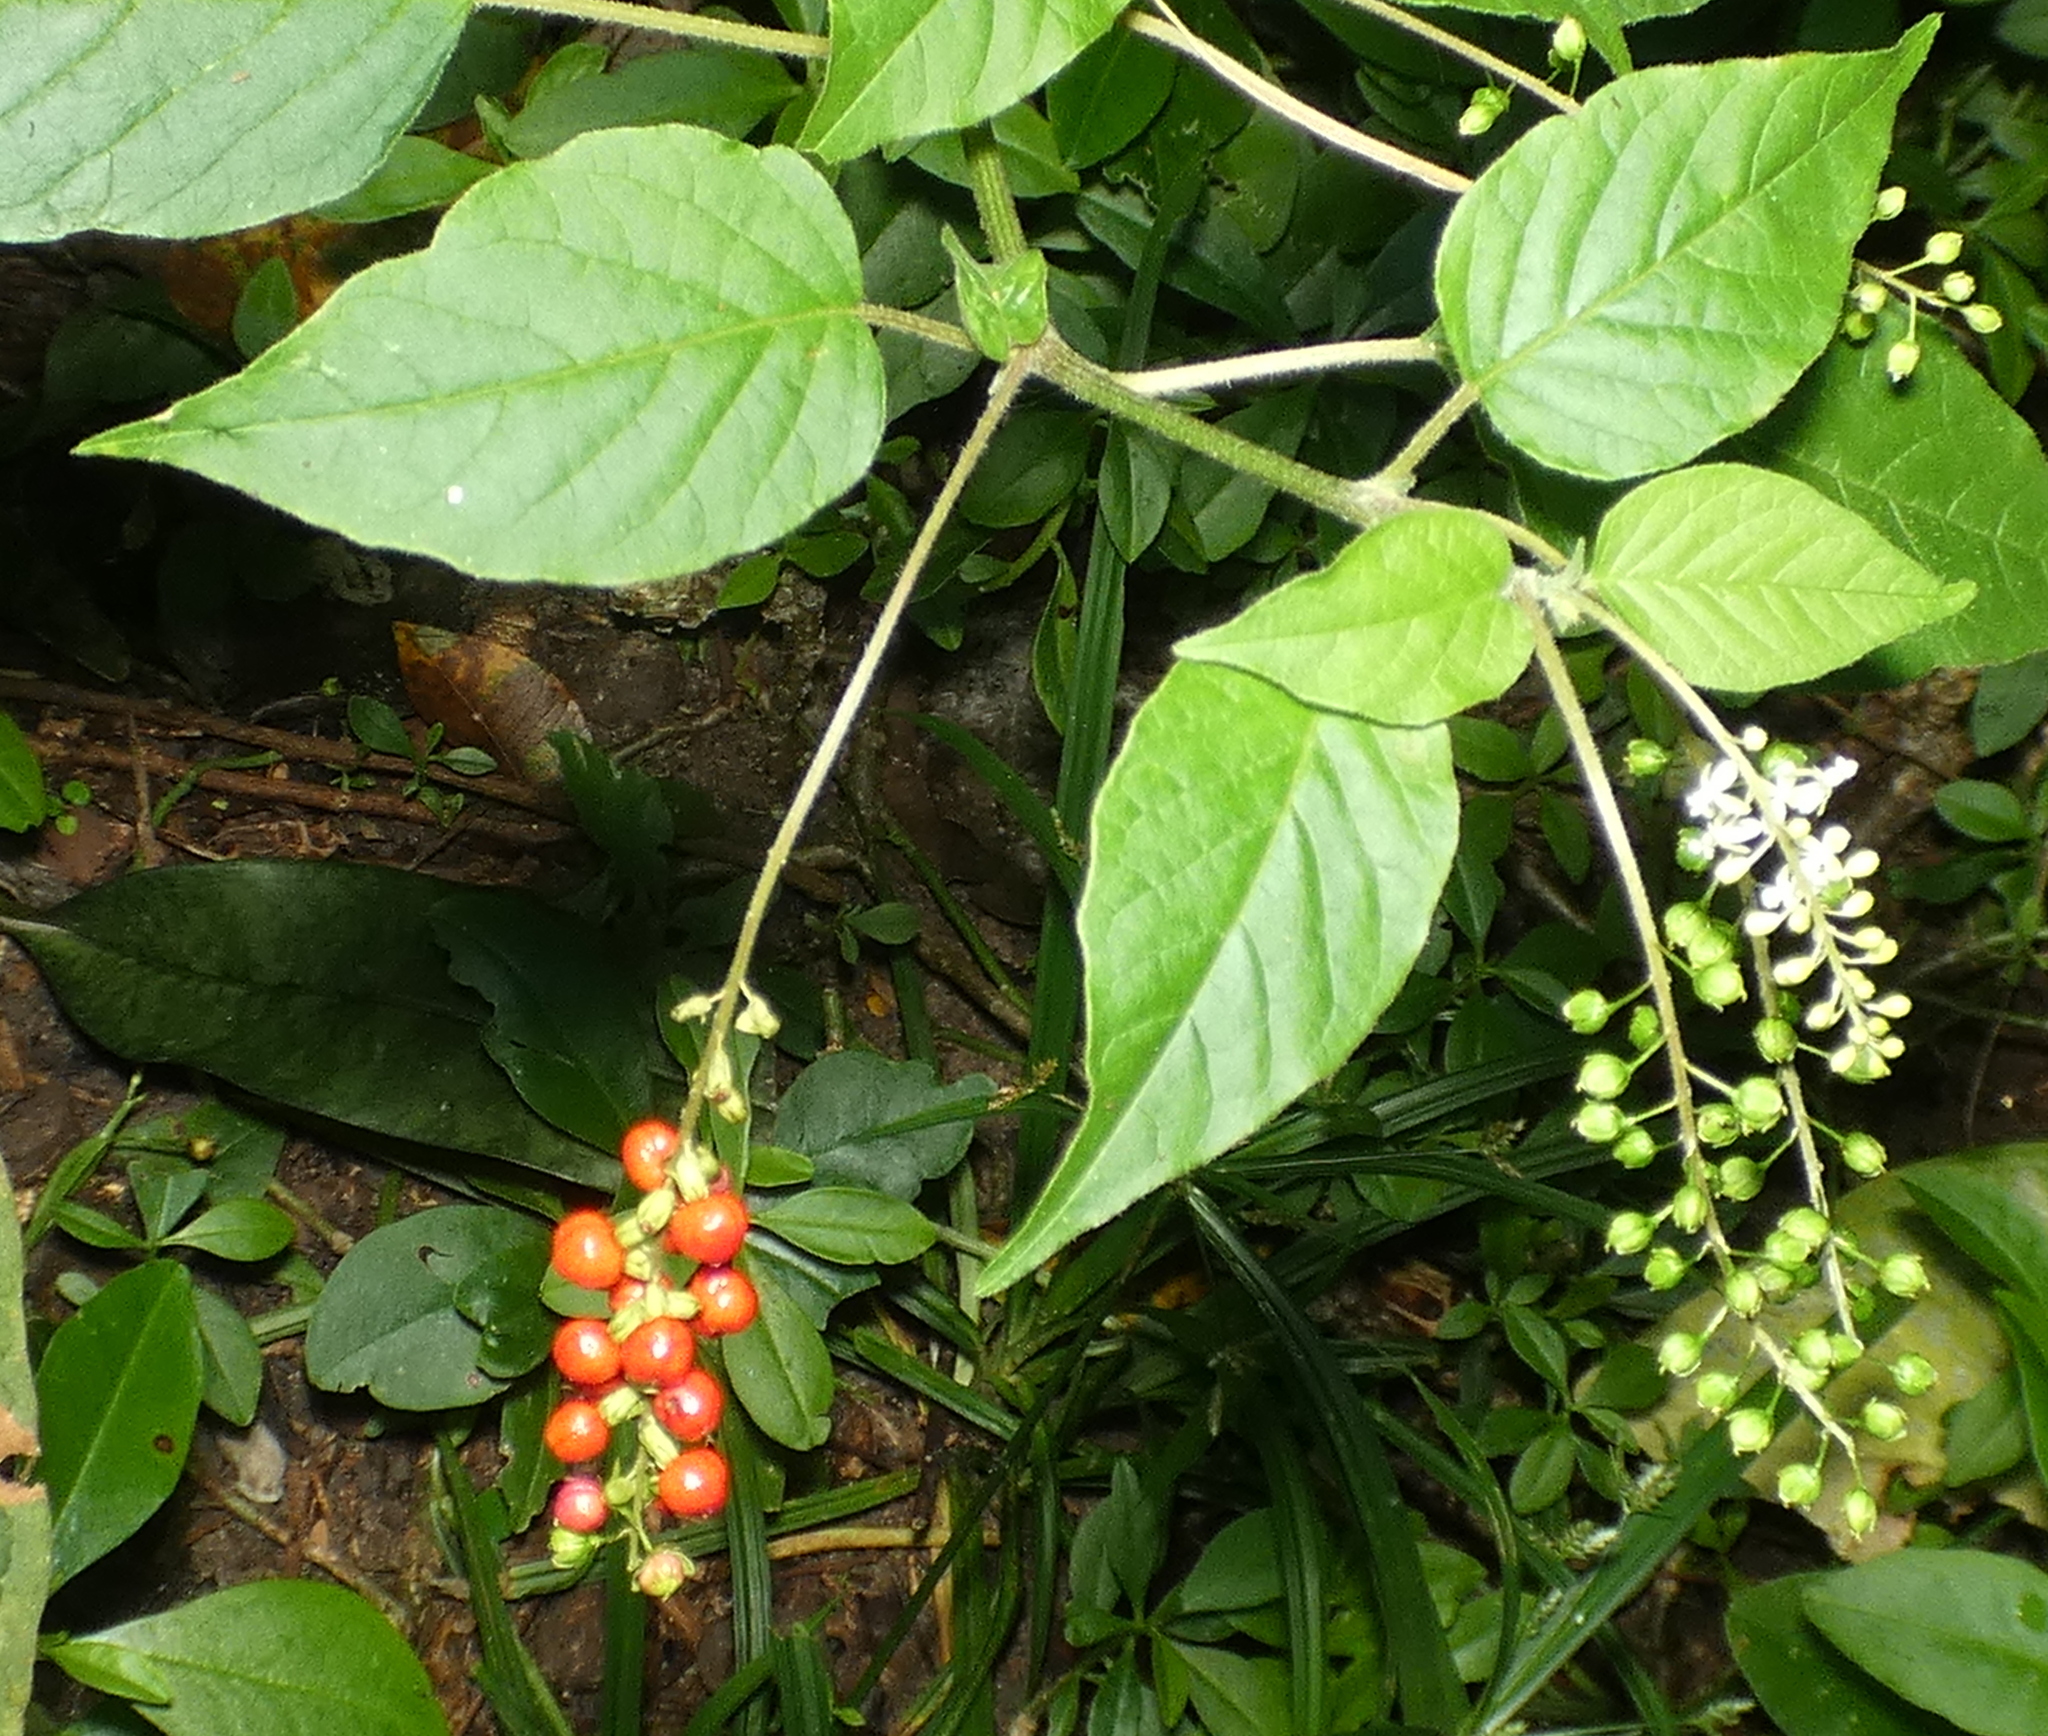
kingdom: Plantae
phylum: Tracheophyta
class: Magnoliopsida
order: Caryophyllales
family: Phytolaccaceae
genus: Rivina
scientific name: Rivina humilis
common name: Rougeplant
